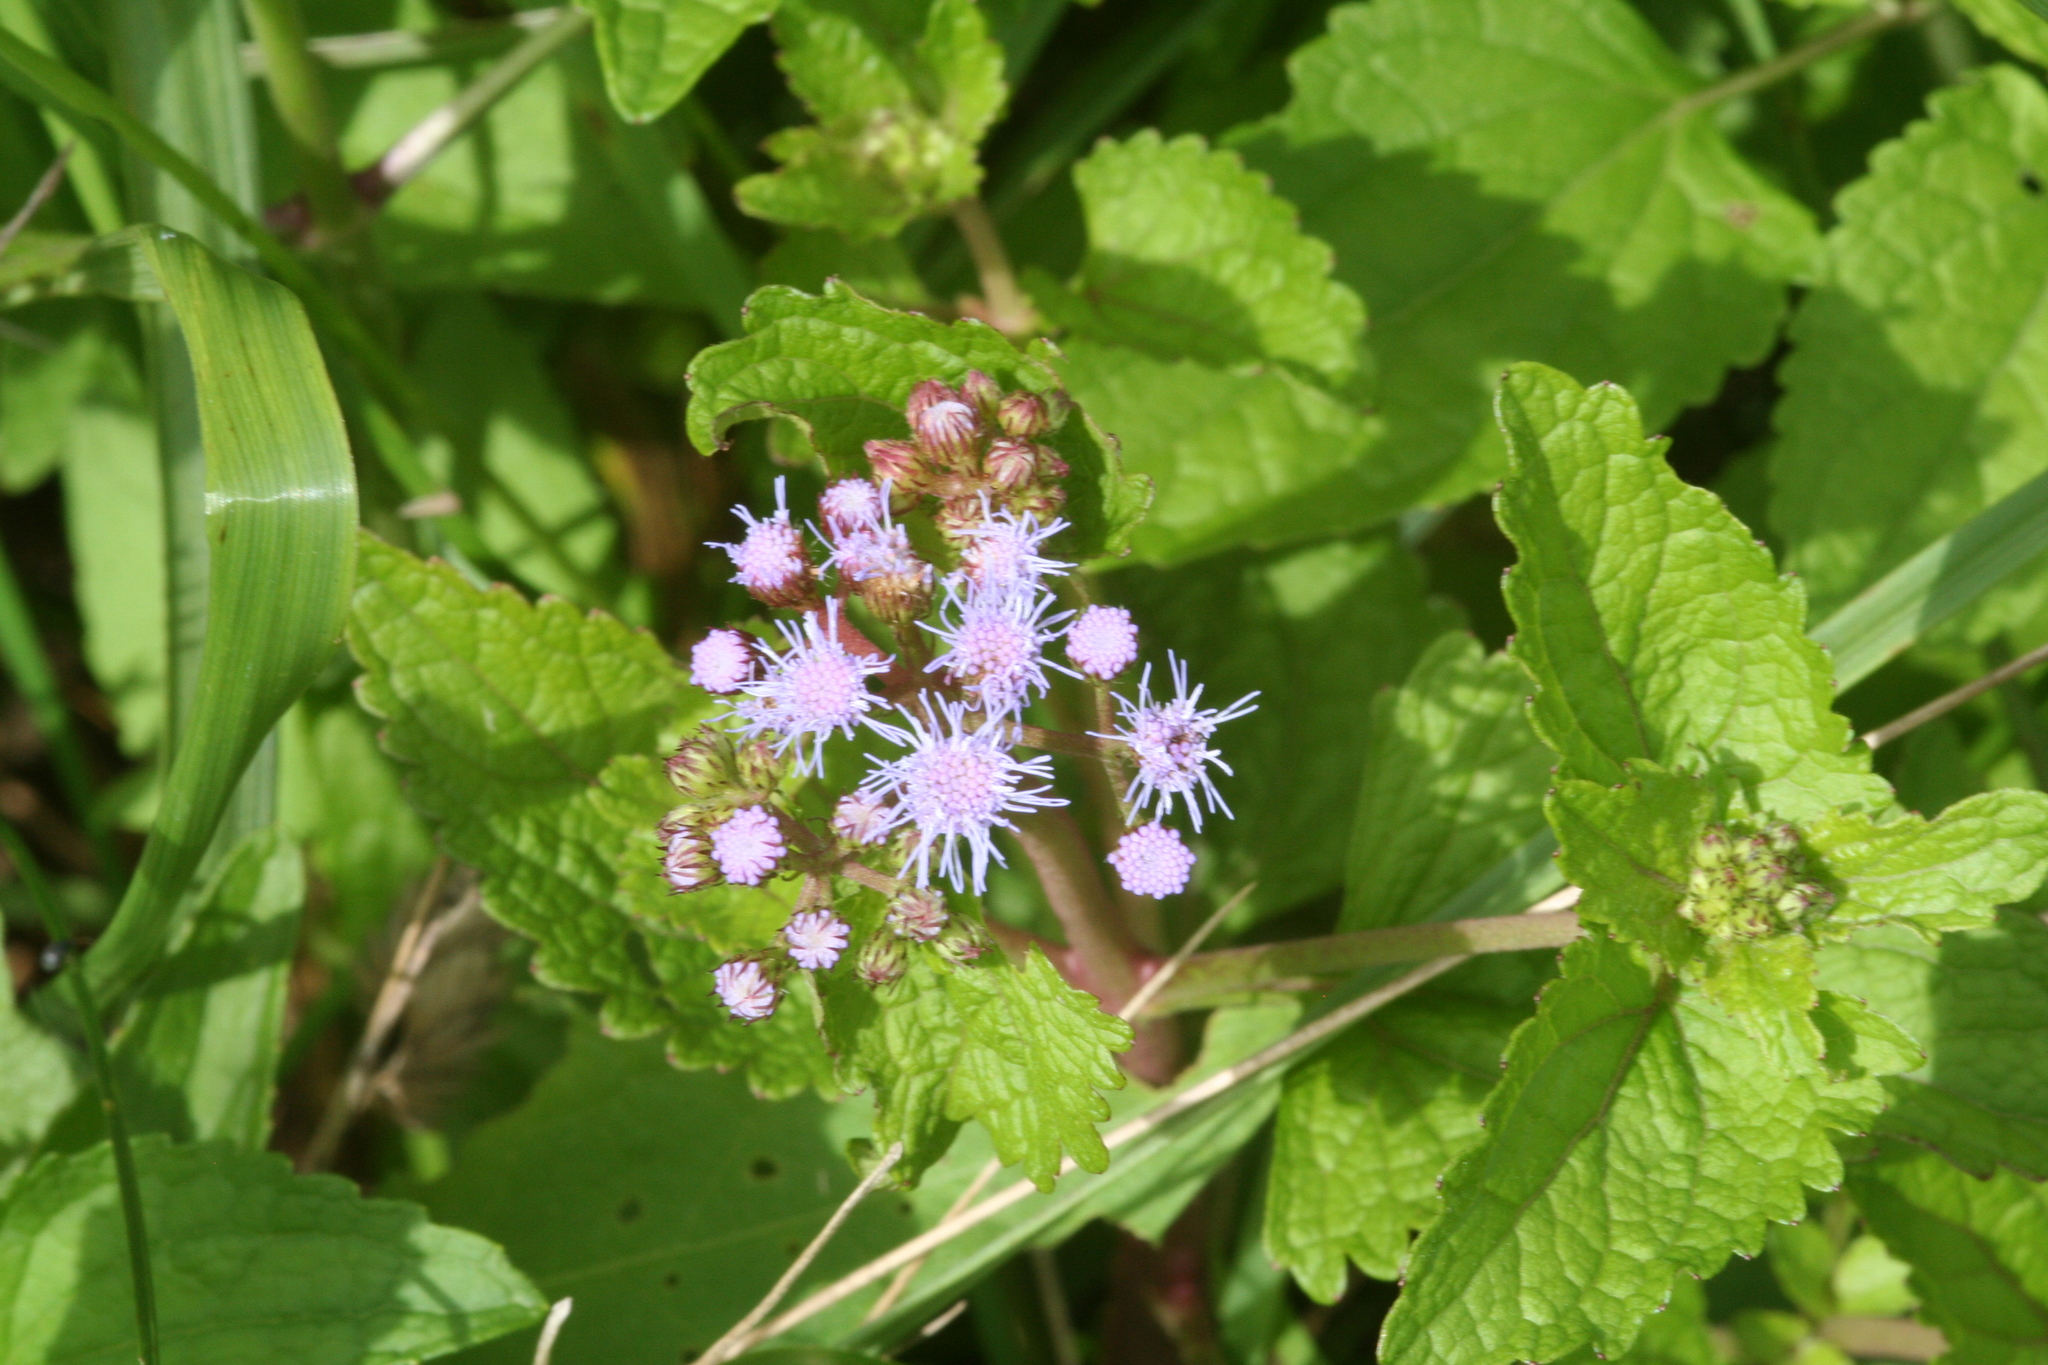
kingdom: Plantae
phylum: Tracheophyta
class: Magnoliopsida
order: Asterales
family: Asteraceae
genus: Conoclinium
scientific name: Conoclinium coelestinum
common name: Blue mistflower
